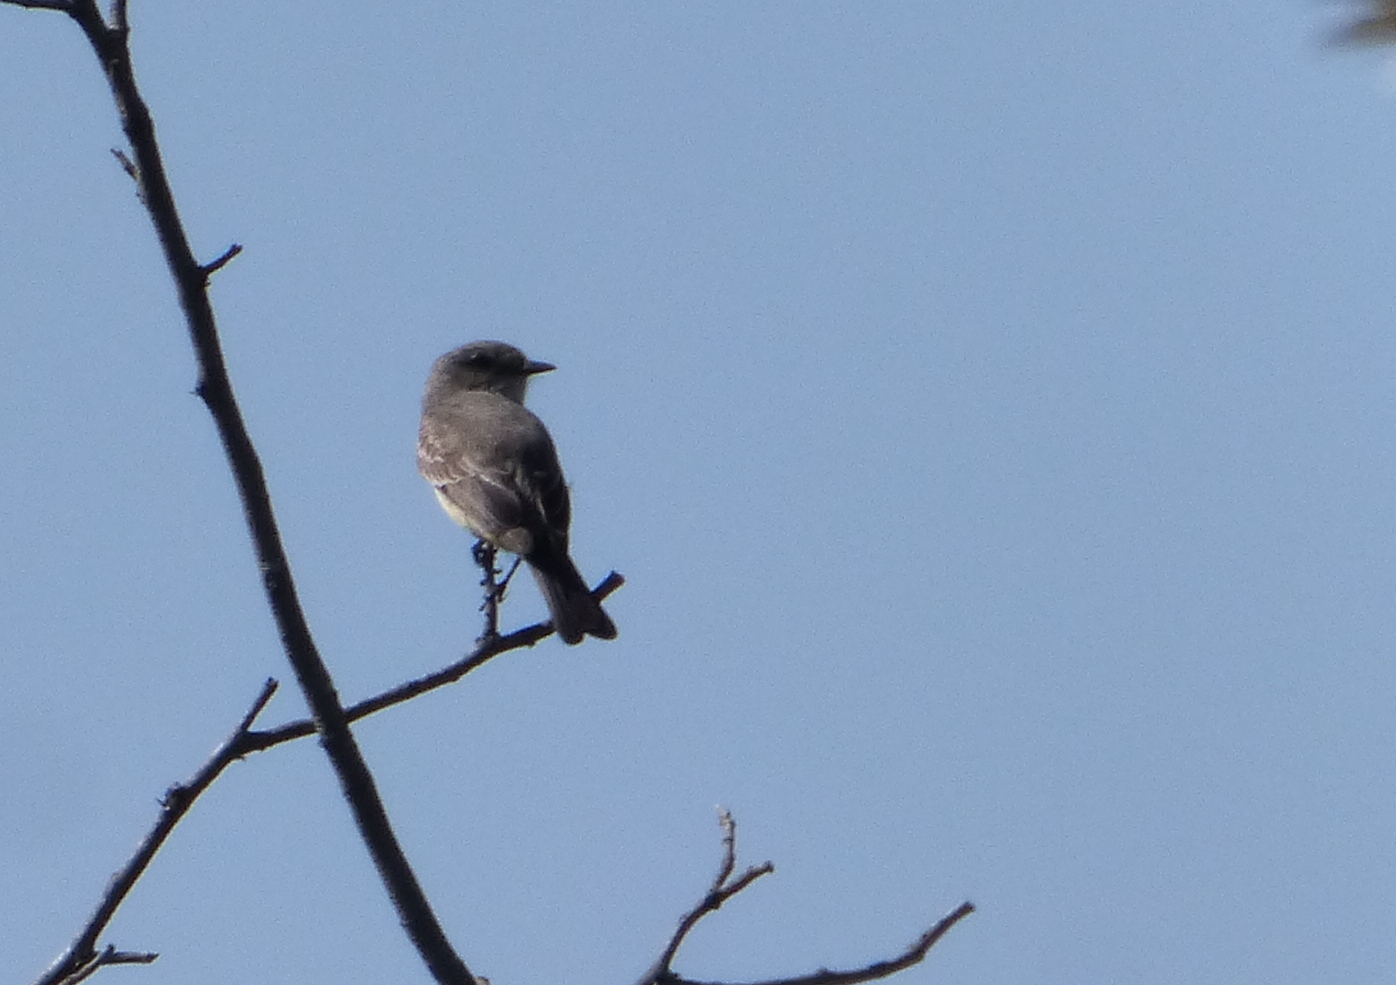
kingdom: Animalia
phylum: Chordata
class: Aves
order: Passeriformes
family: Tyrannidae
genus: Pyrocephalus
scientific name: Pyrocephalus rubinus
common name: Vermilion flycatcher
